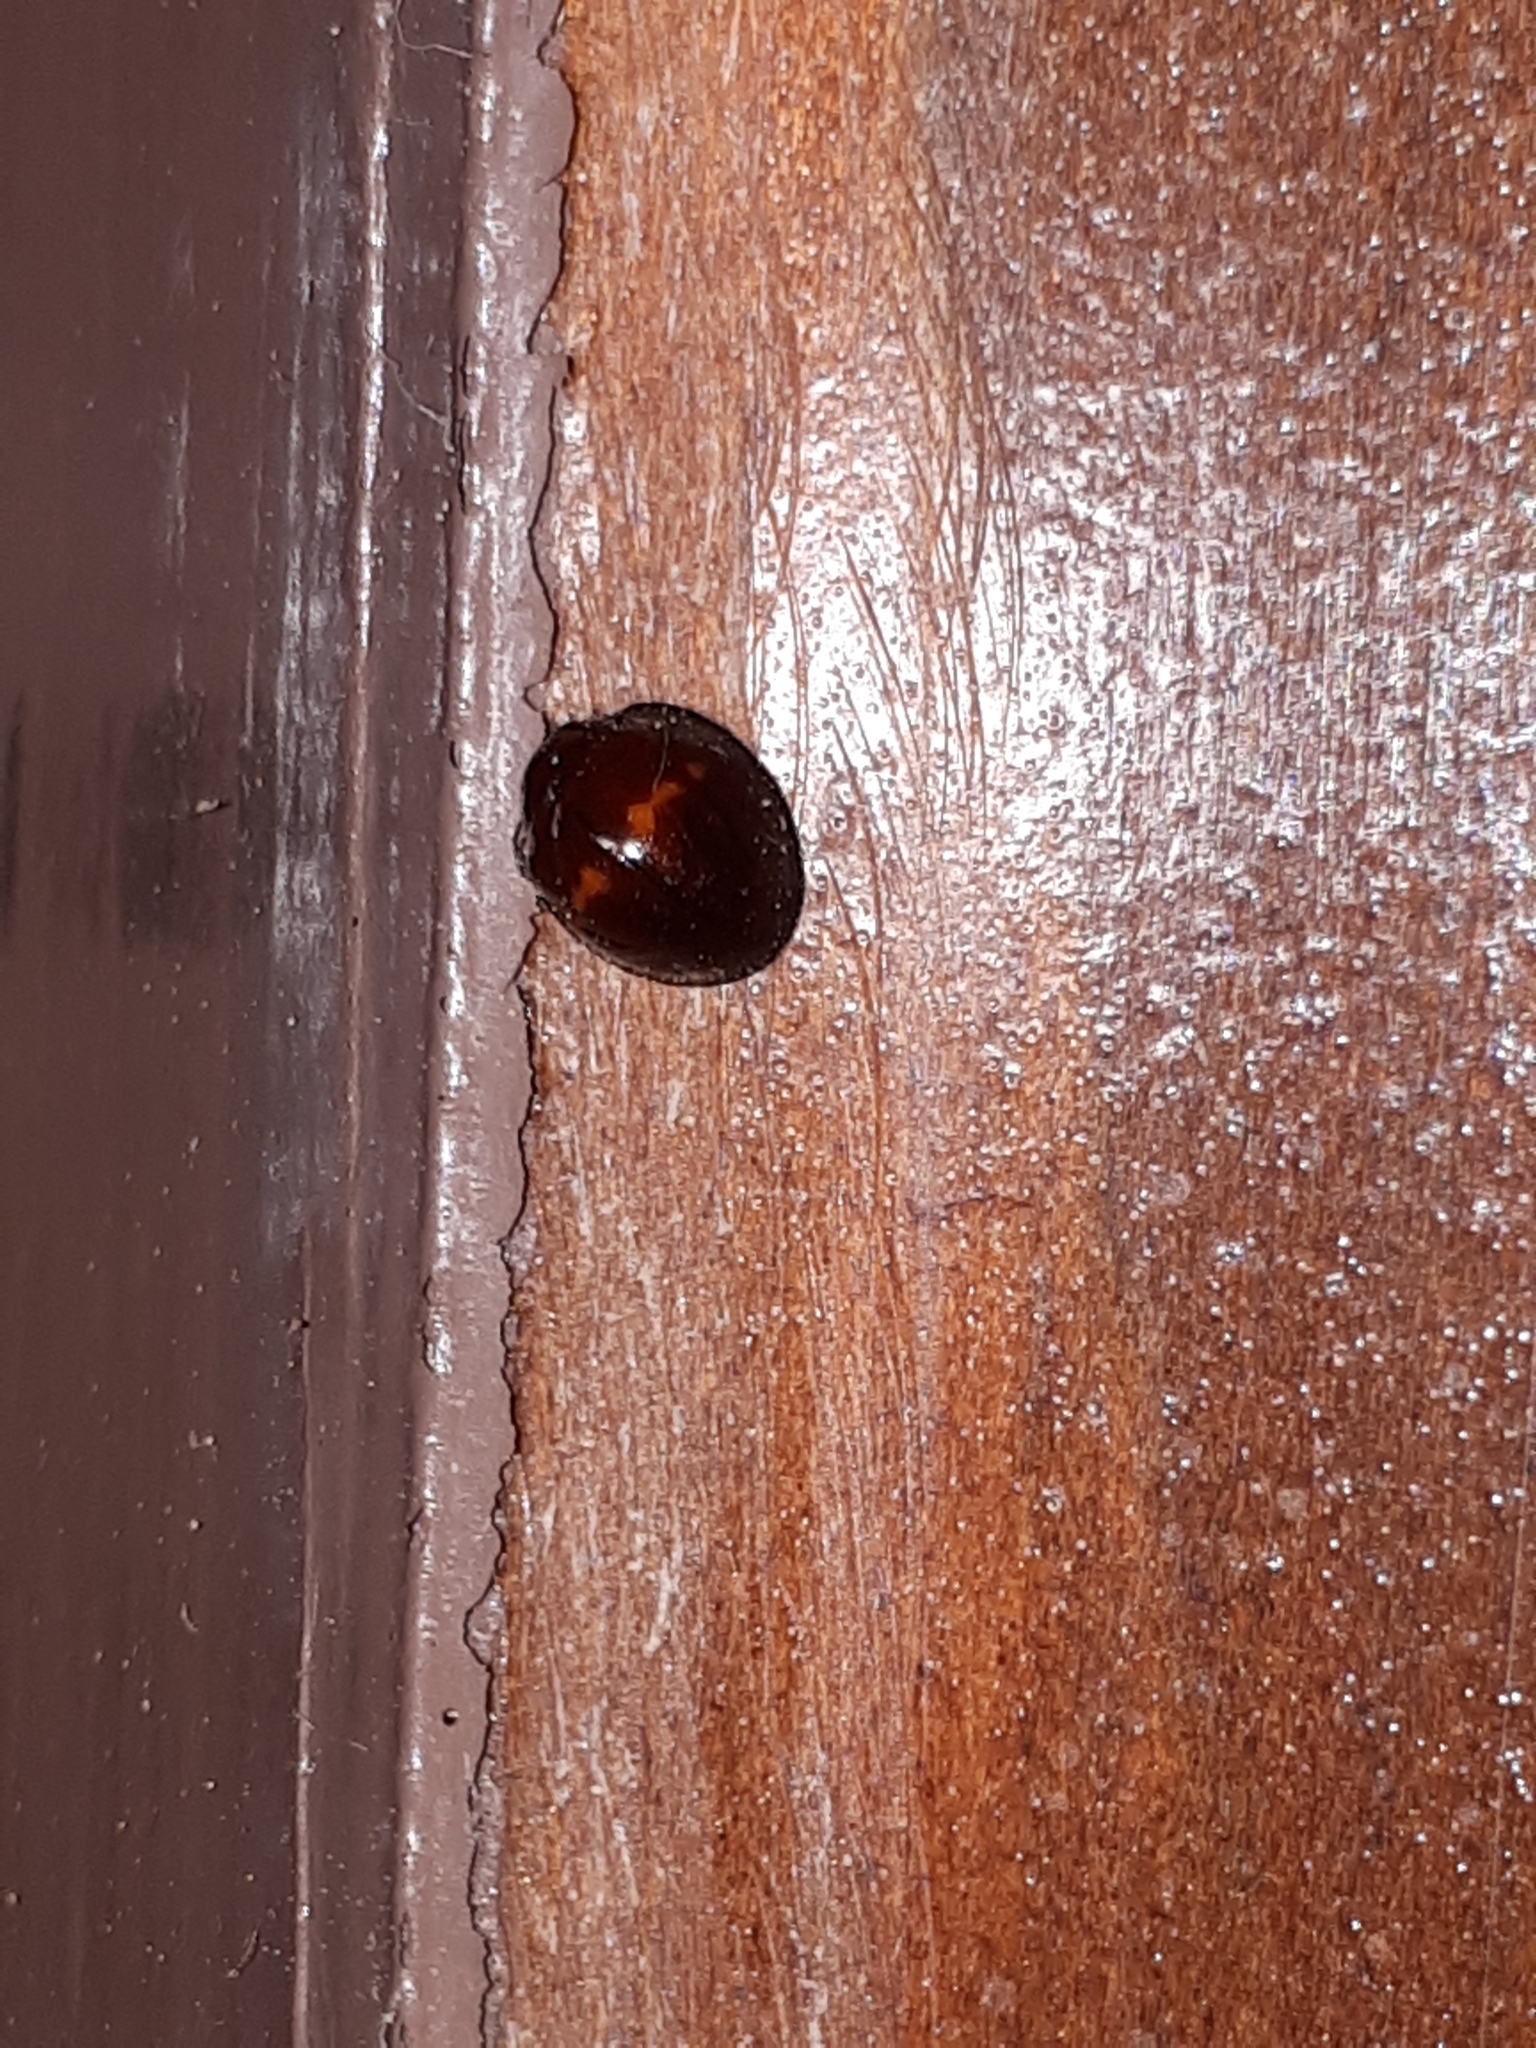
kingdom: Animalia
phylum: Arthropoda
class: Insecta
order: Coleoptera
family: Coccinellidae
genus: Chilocorus
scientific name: Chilocorus bipustulatus
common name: Heather ladybird
